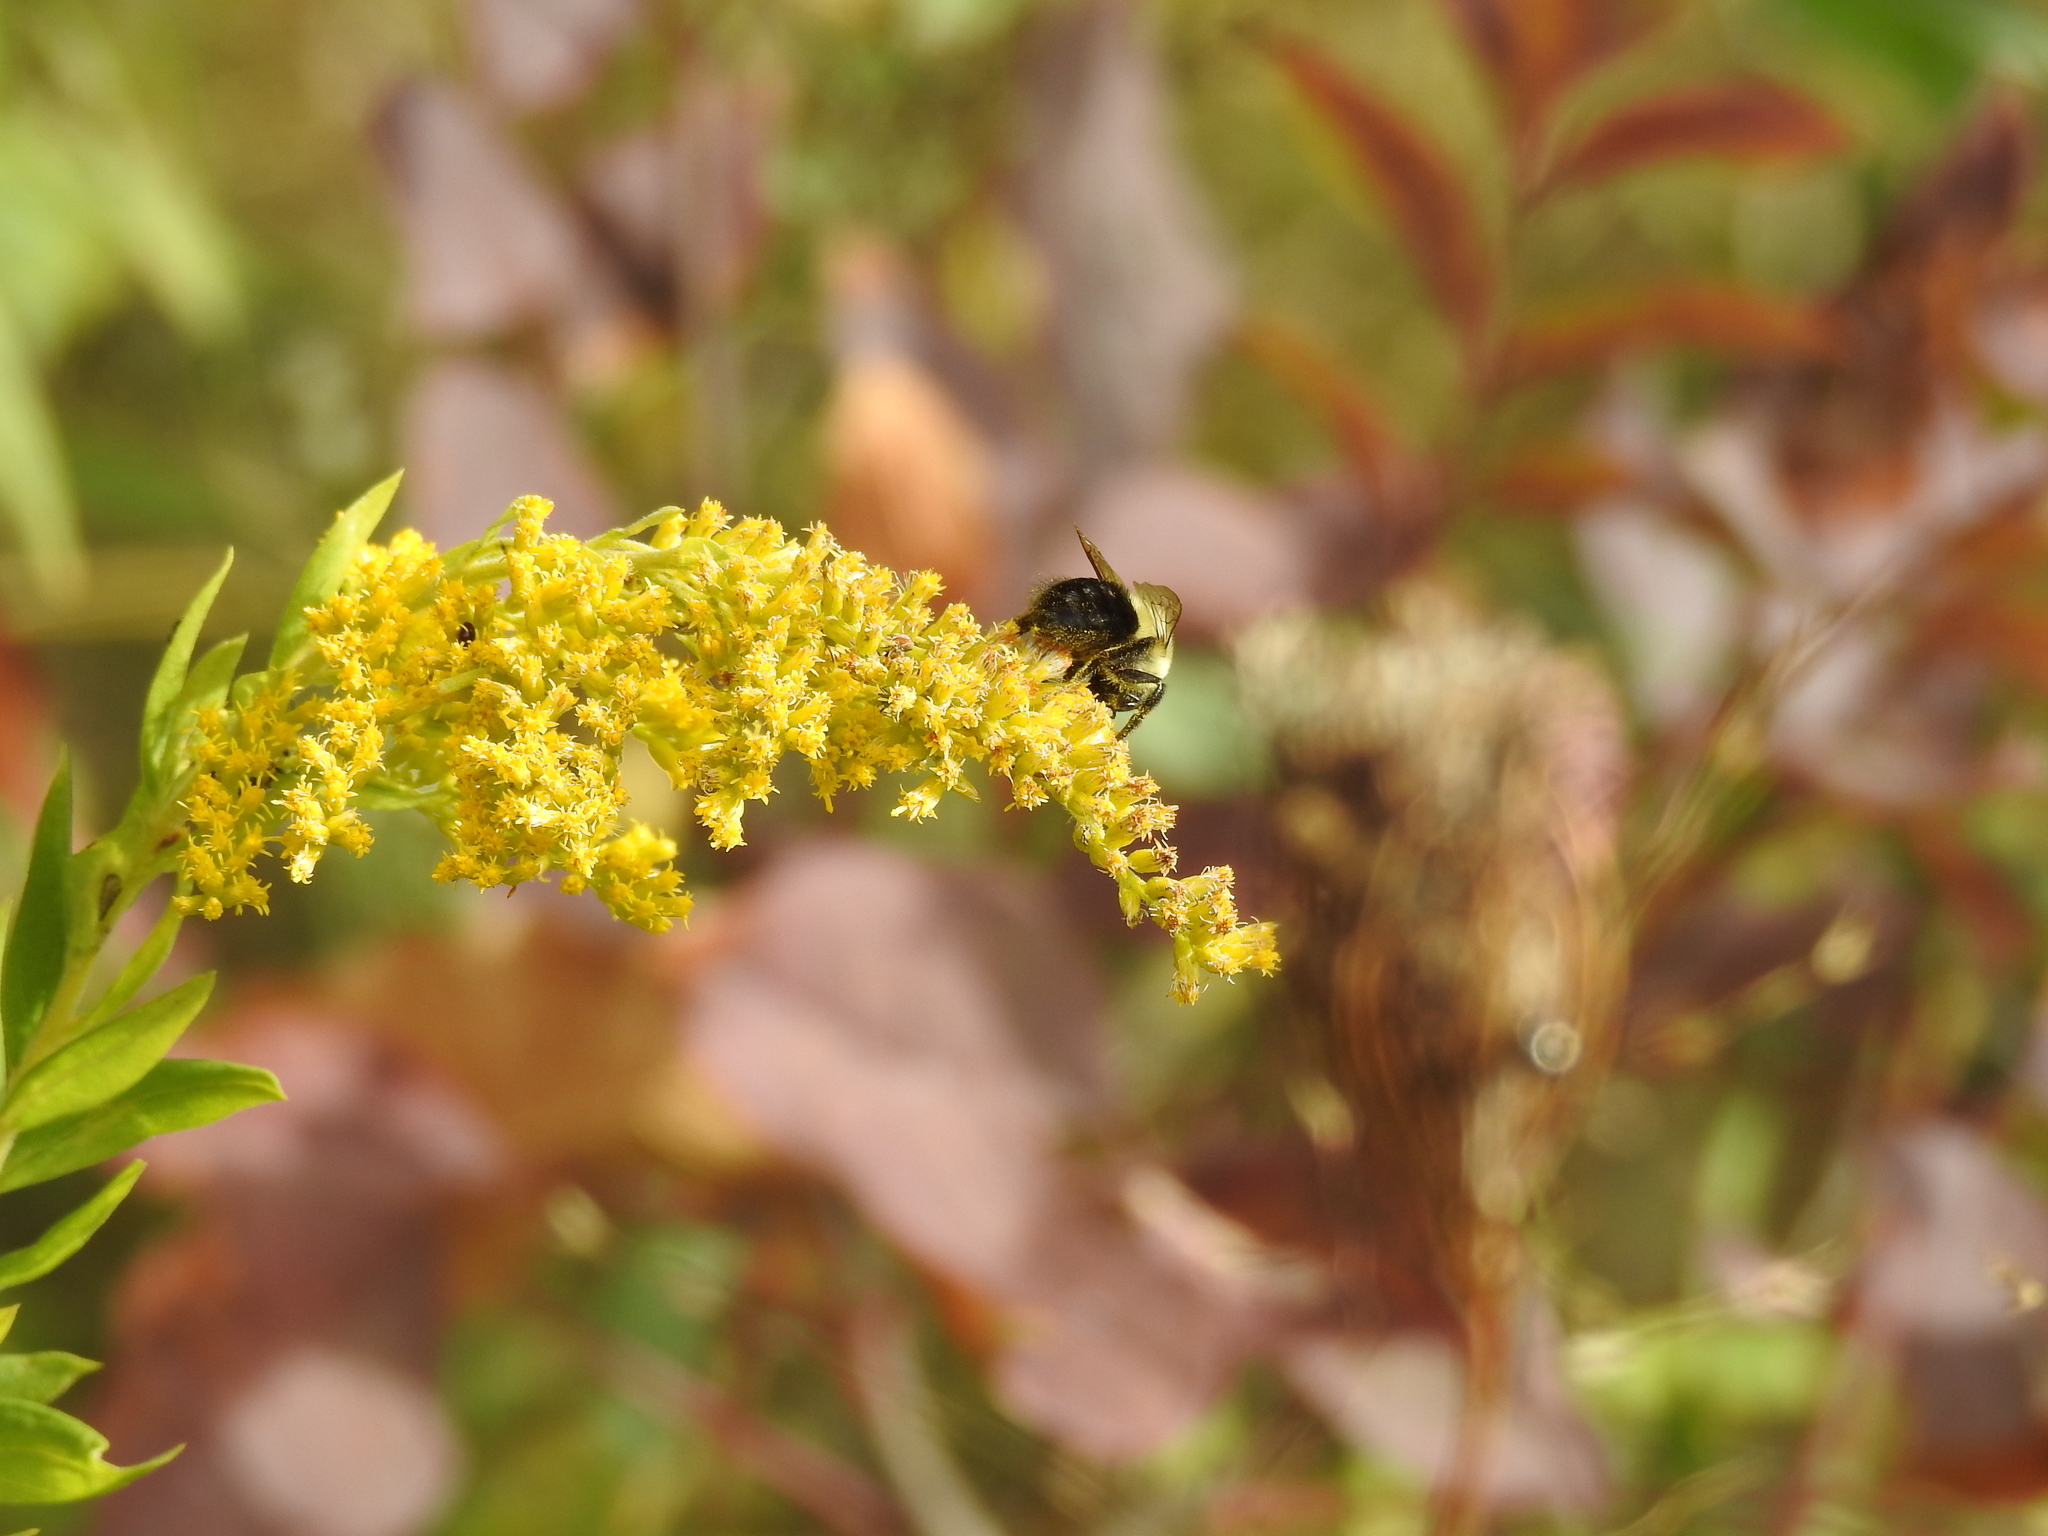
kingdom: Animalia
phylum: Arthropoda
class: Insecta
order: Hymenoptera
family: Apidae
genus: Bombus
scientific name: Bombus impatiens
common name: Common eastern bumble bee
